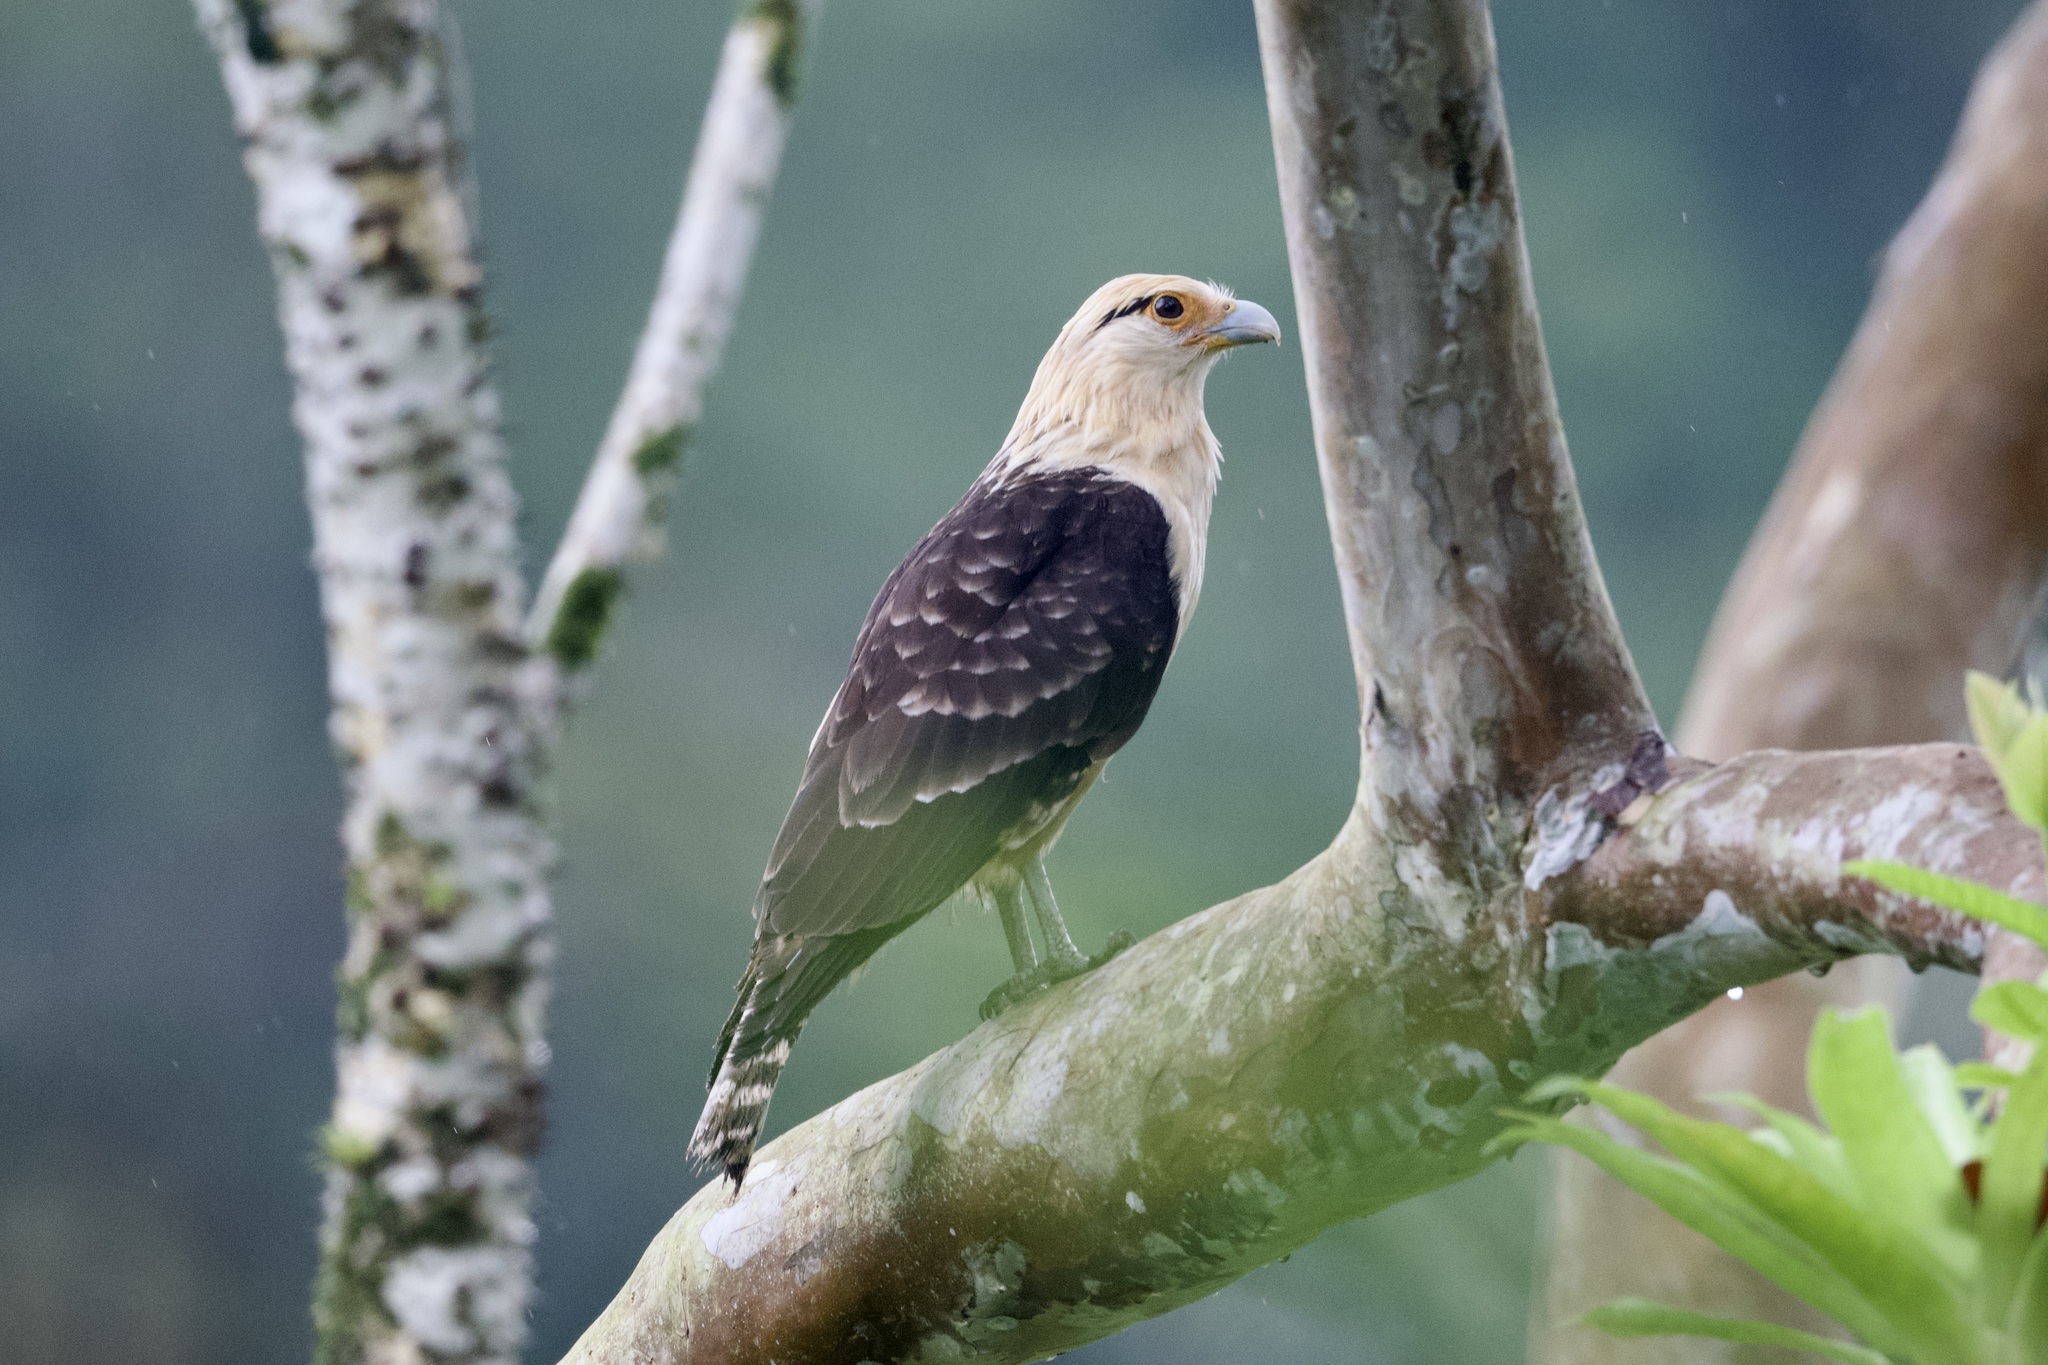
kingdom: Animalia
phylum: Chordata
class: Aves
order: Falconiformes
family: Falconidae
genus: Daptrius
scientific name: Daptrius
